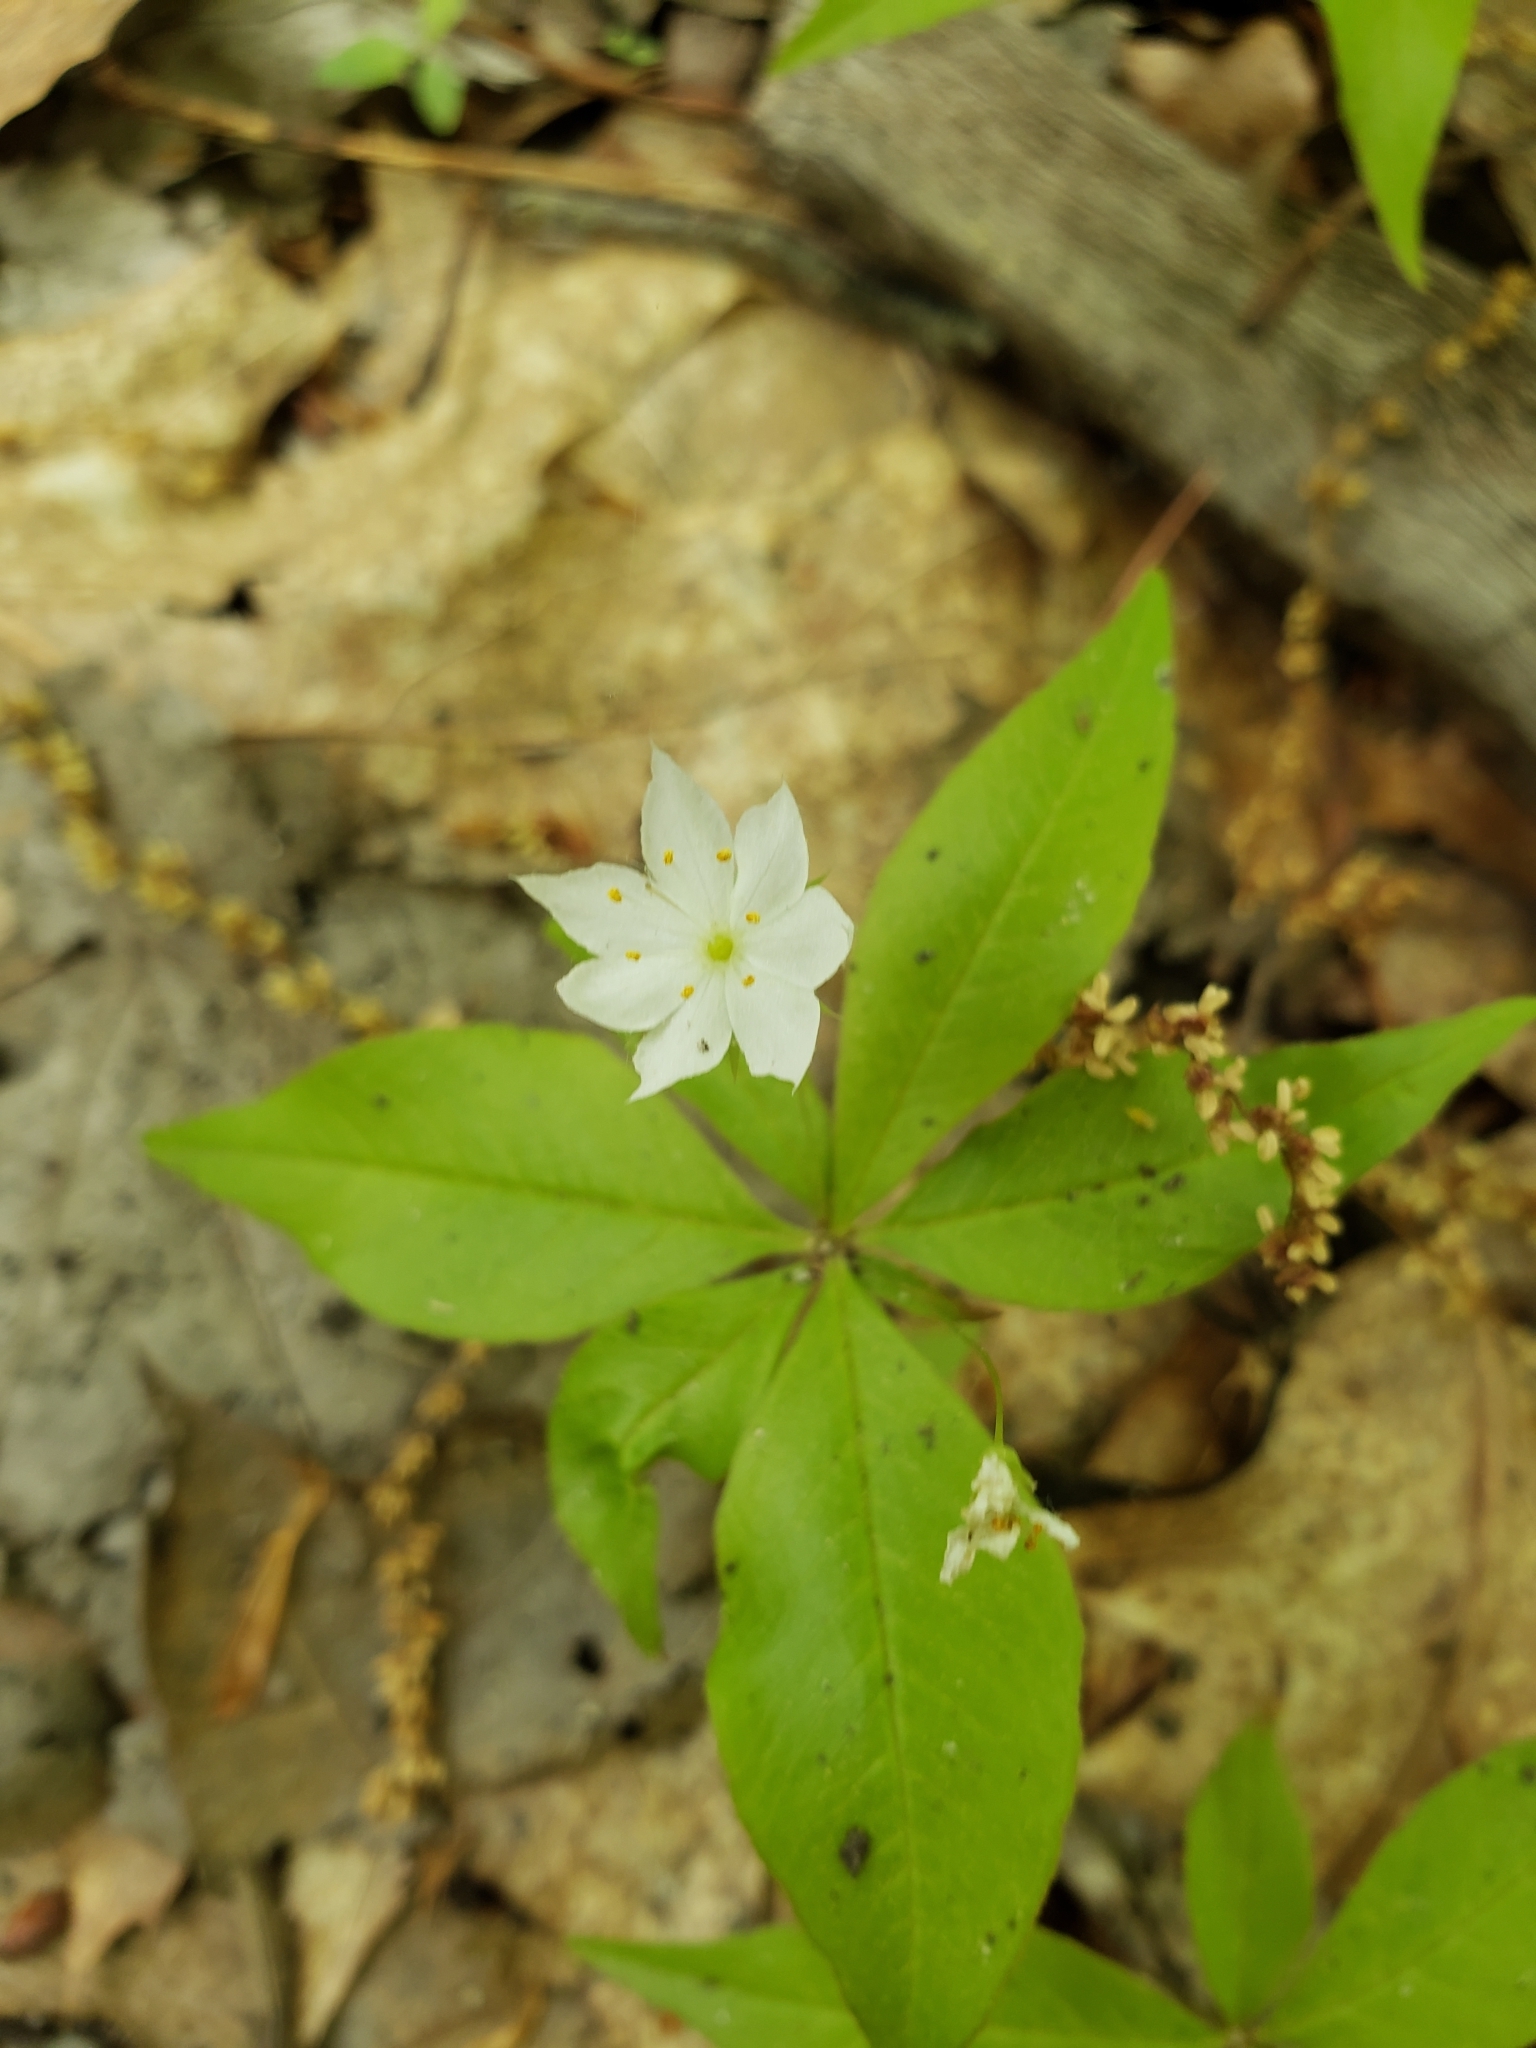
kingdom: Plantae
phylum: Tracheophyta
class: Magnoliopsida
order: Ericales
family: Primulaceae
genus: Lysimachia
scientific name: Lysimachia borealis
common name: American starflower
